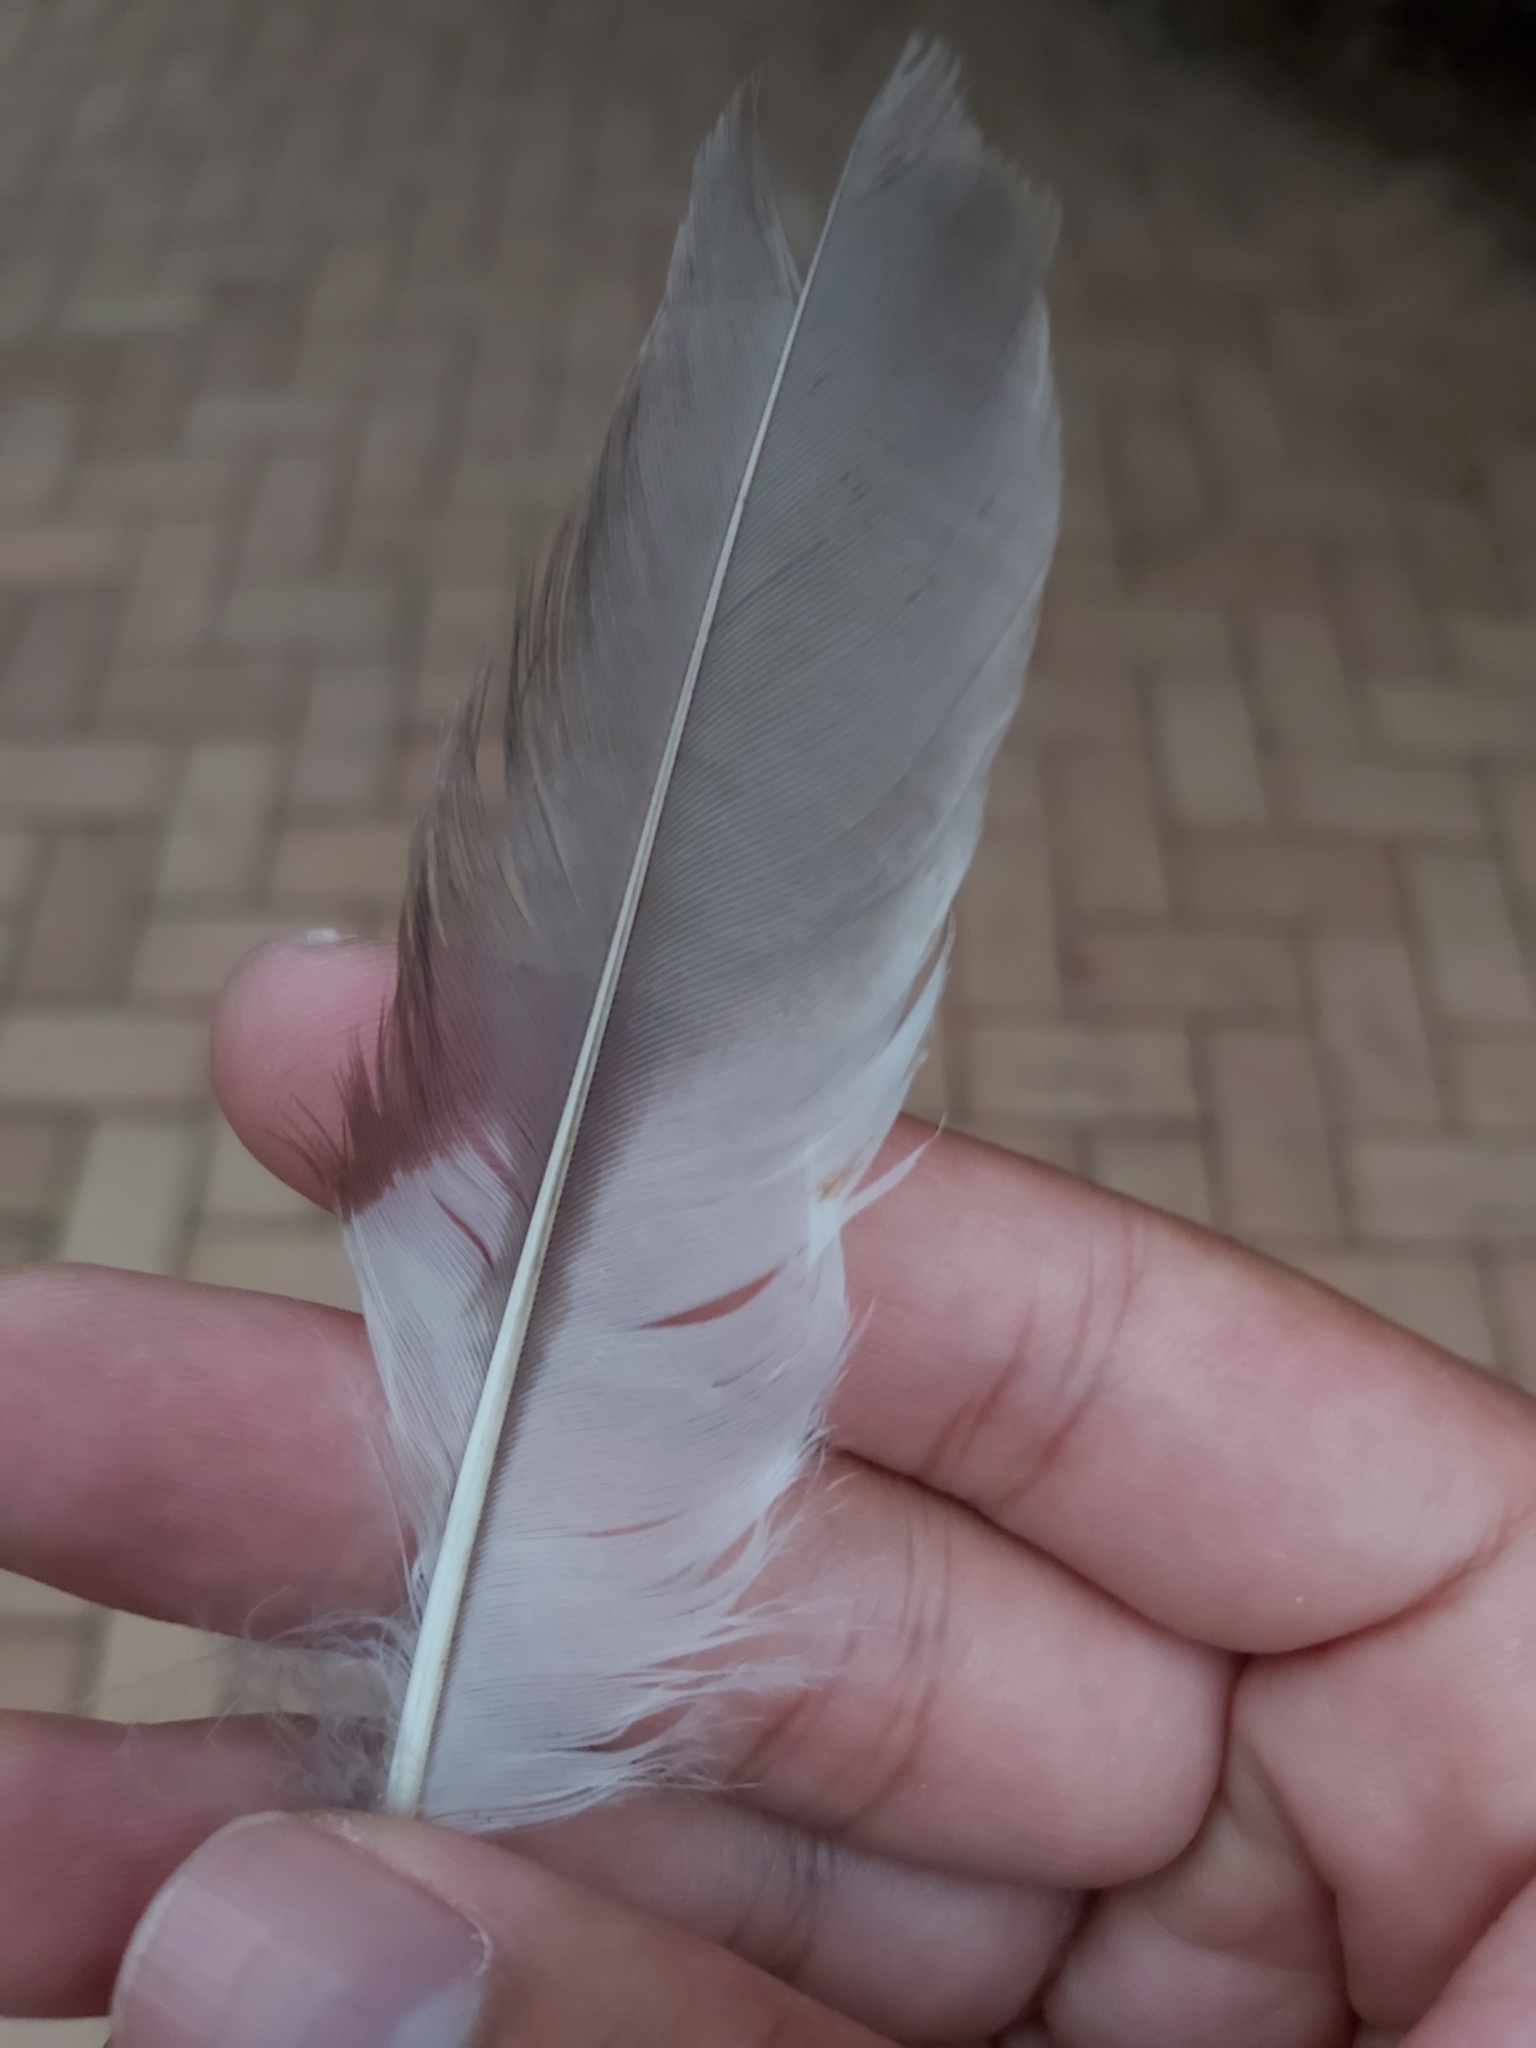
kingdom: Animalia
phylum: Chordata
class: Aves
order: Coraciiformes
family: Alcedinidae
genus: Dacelo
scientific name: Dacelo novaeguineae
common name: Laughing kookaburra
